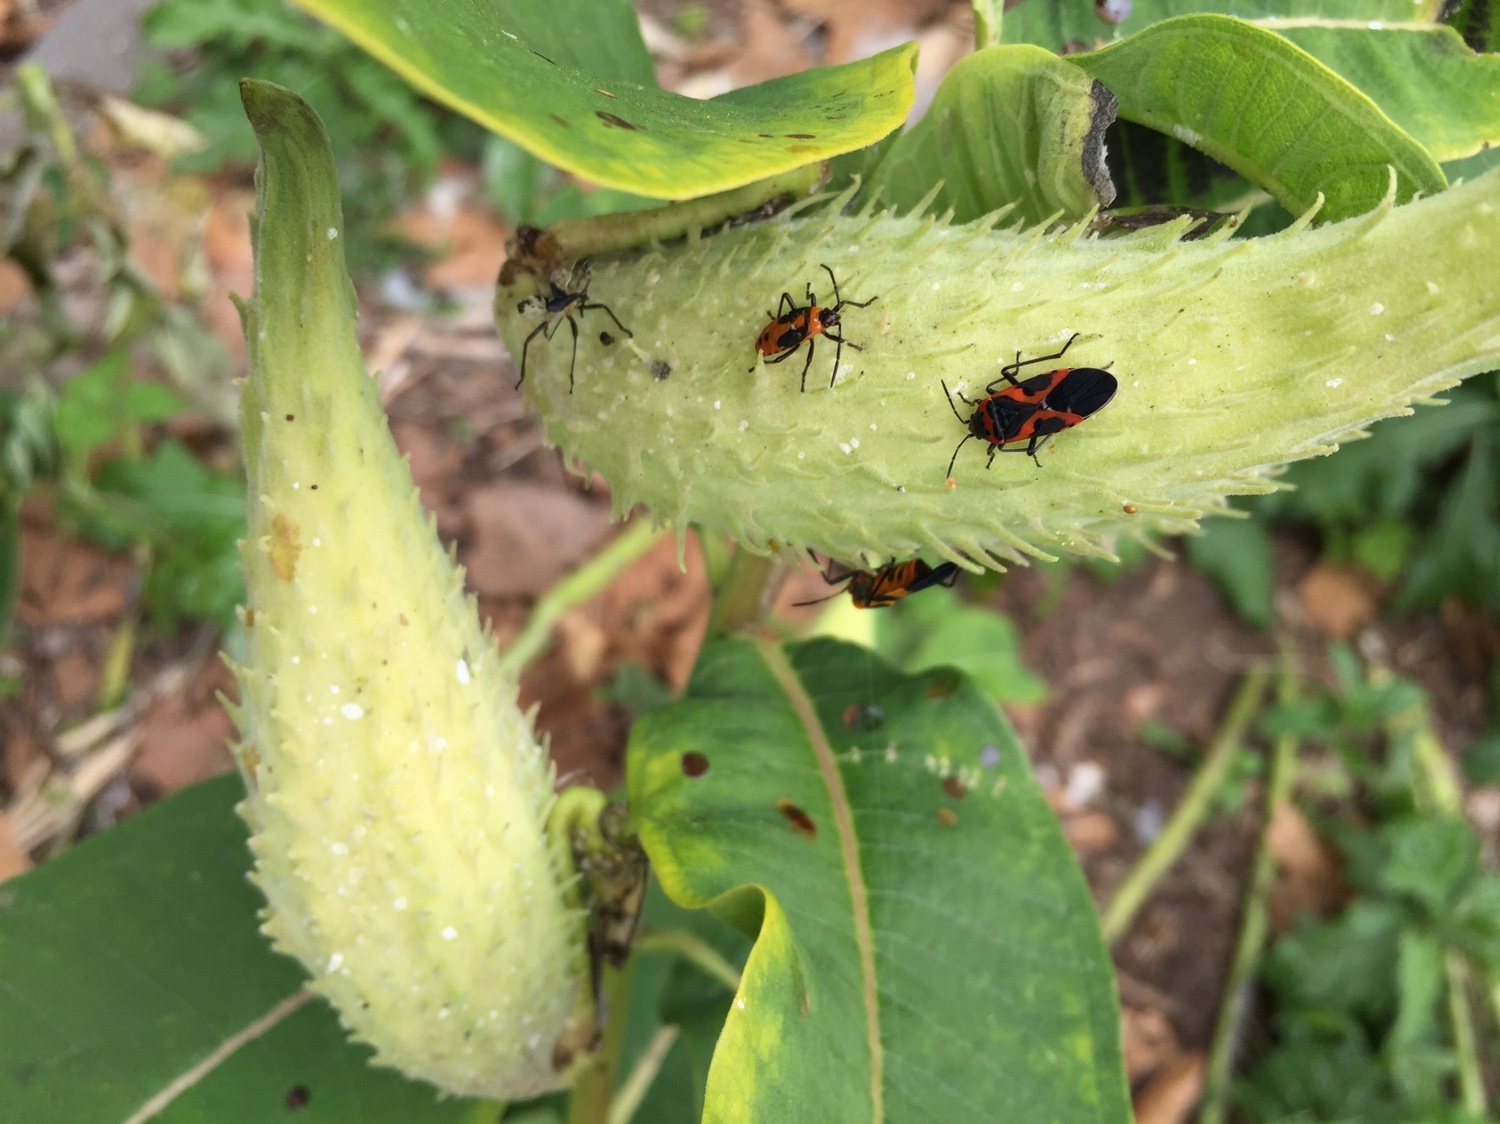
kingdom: Animalia
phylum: Arthropoda
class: Insecta
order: Hemiptera
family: Lygaeidae
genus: Lygaeus
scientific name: Lygaeus kalmii
